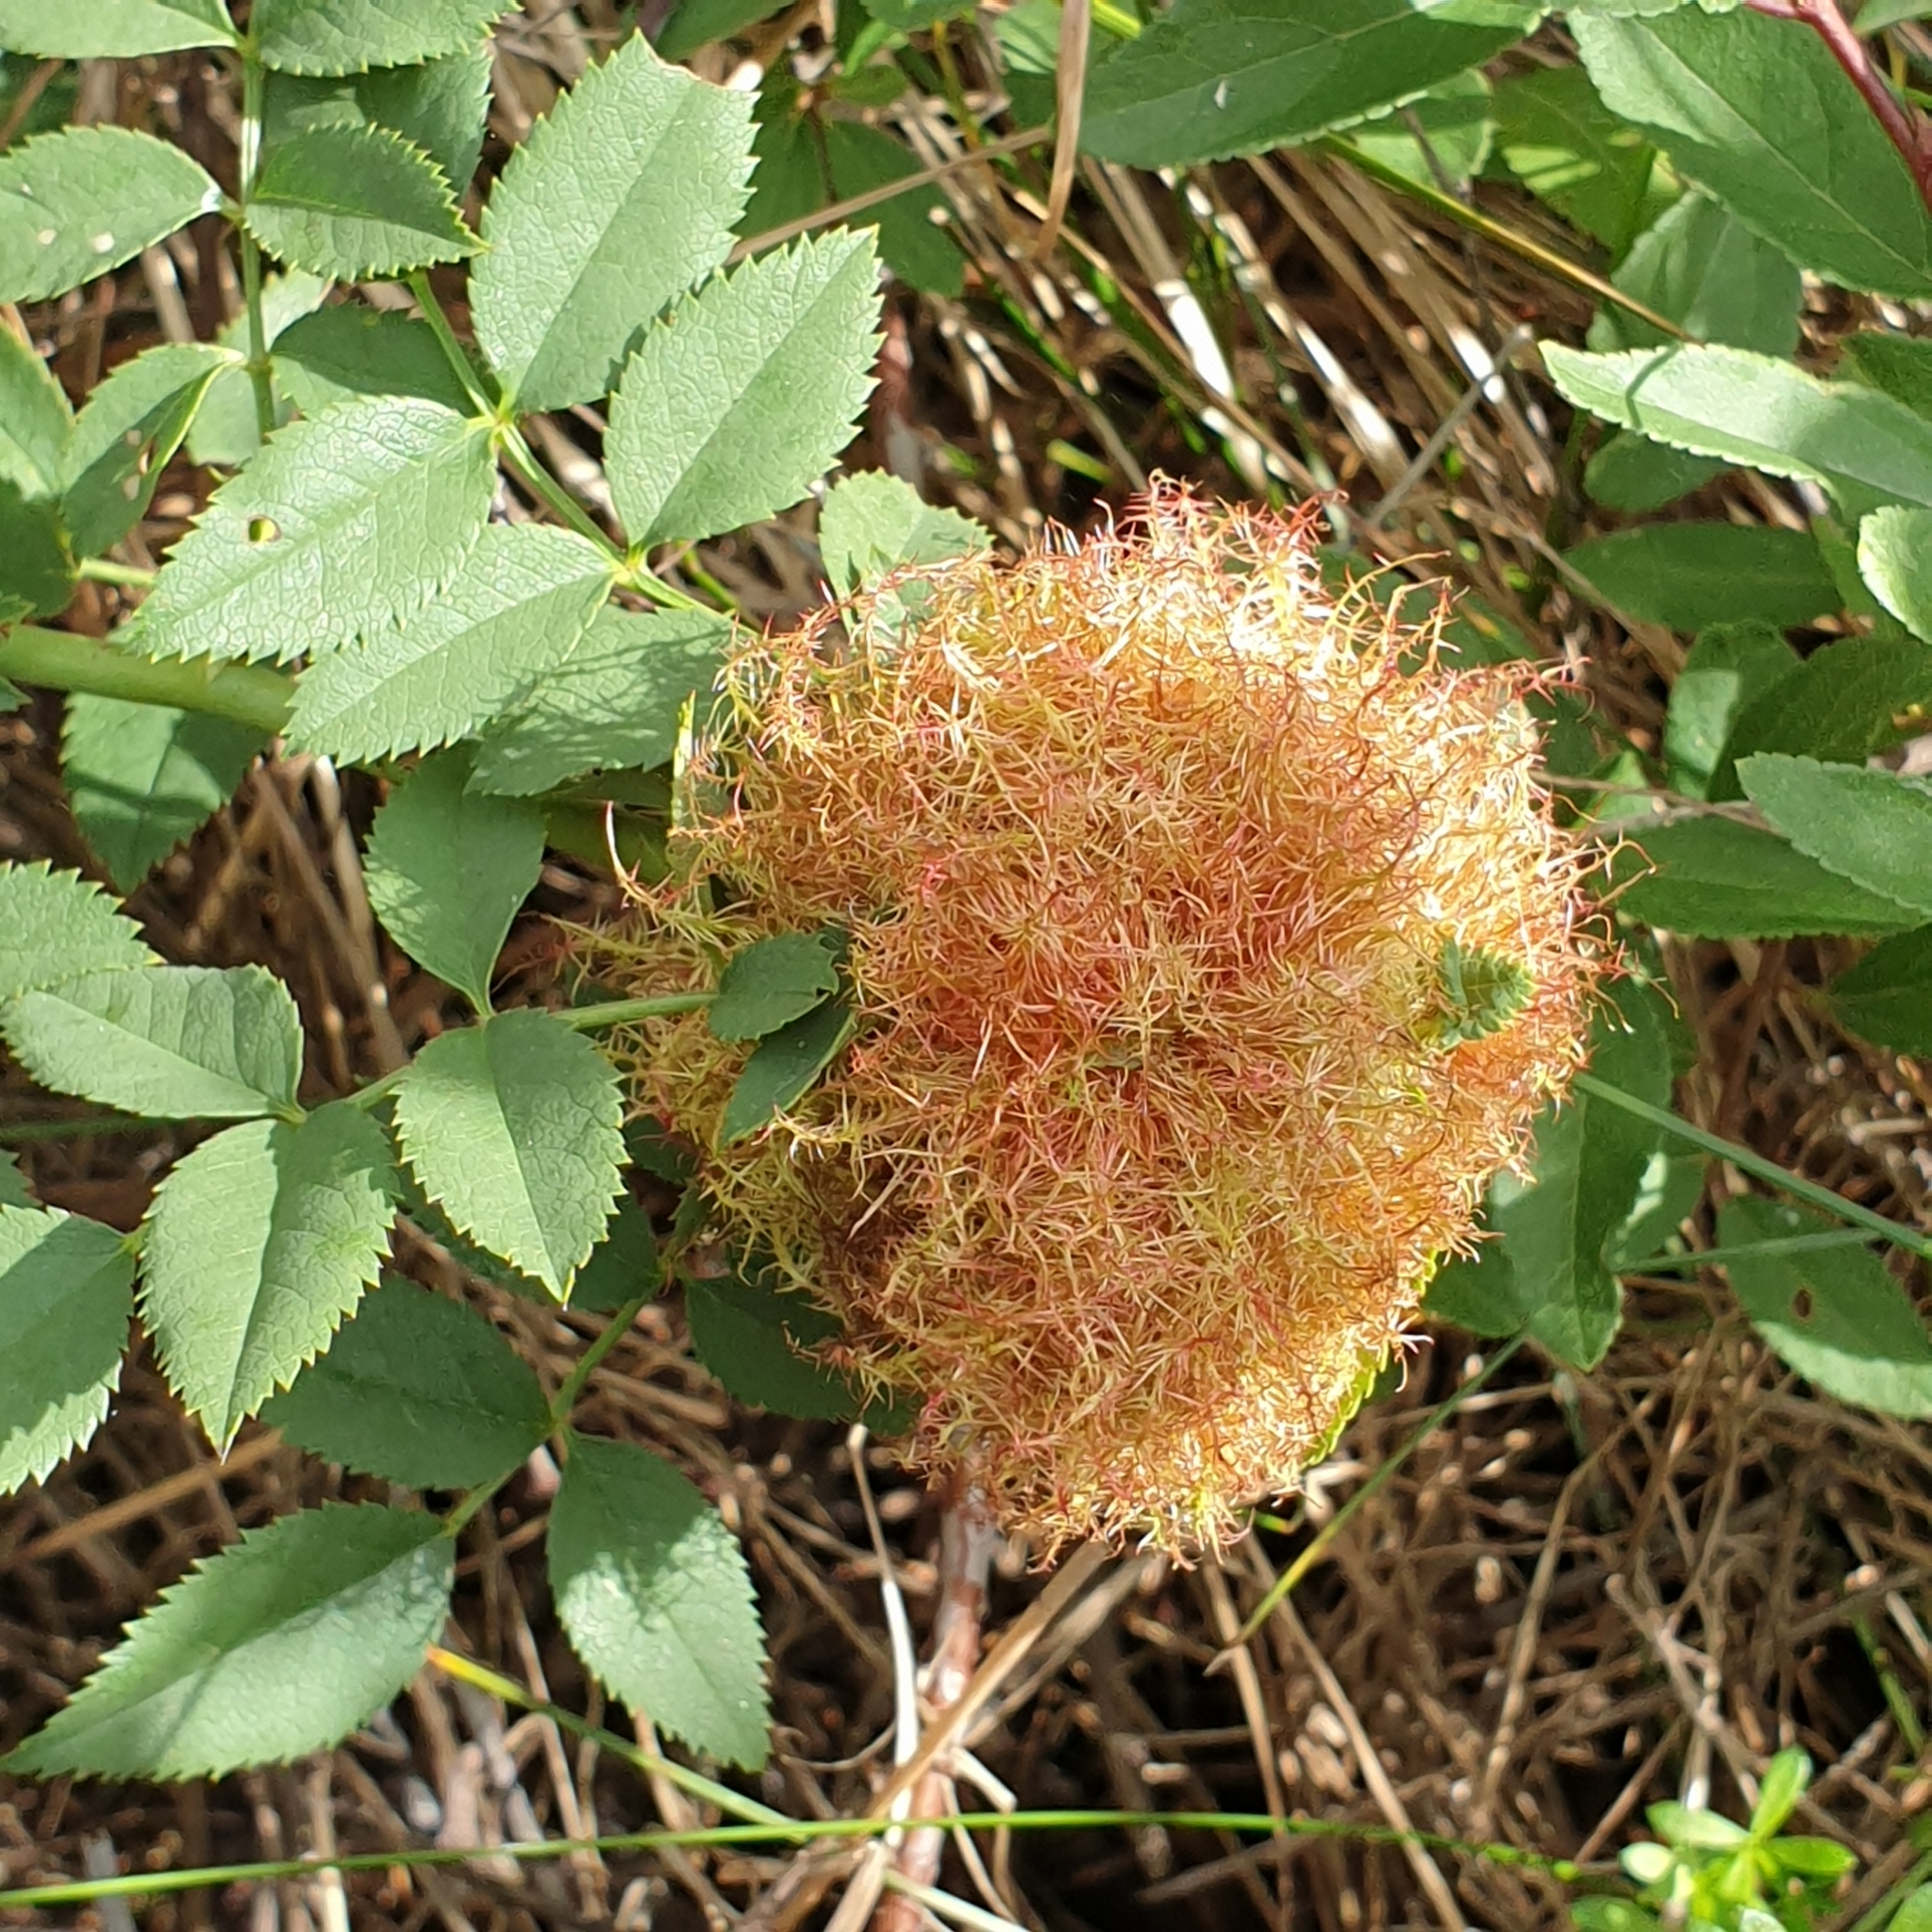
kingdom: Animalia
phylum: Arthropoda
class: Insecta
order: Hymenoptera
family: Cynipidae
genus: Diplolepis
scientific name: Diplolepis rosae
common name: Bedeguar gall
